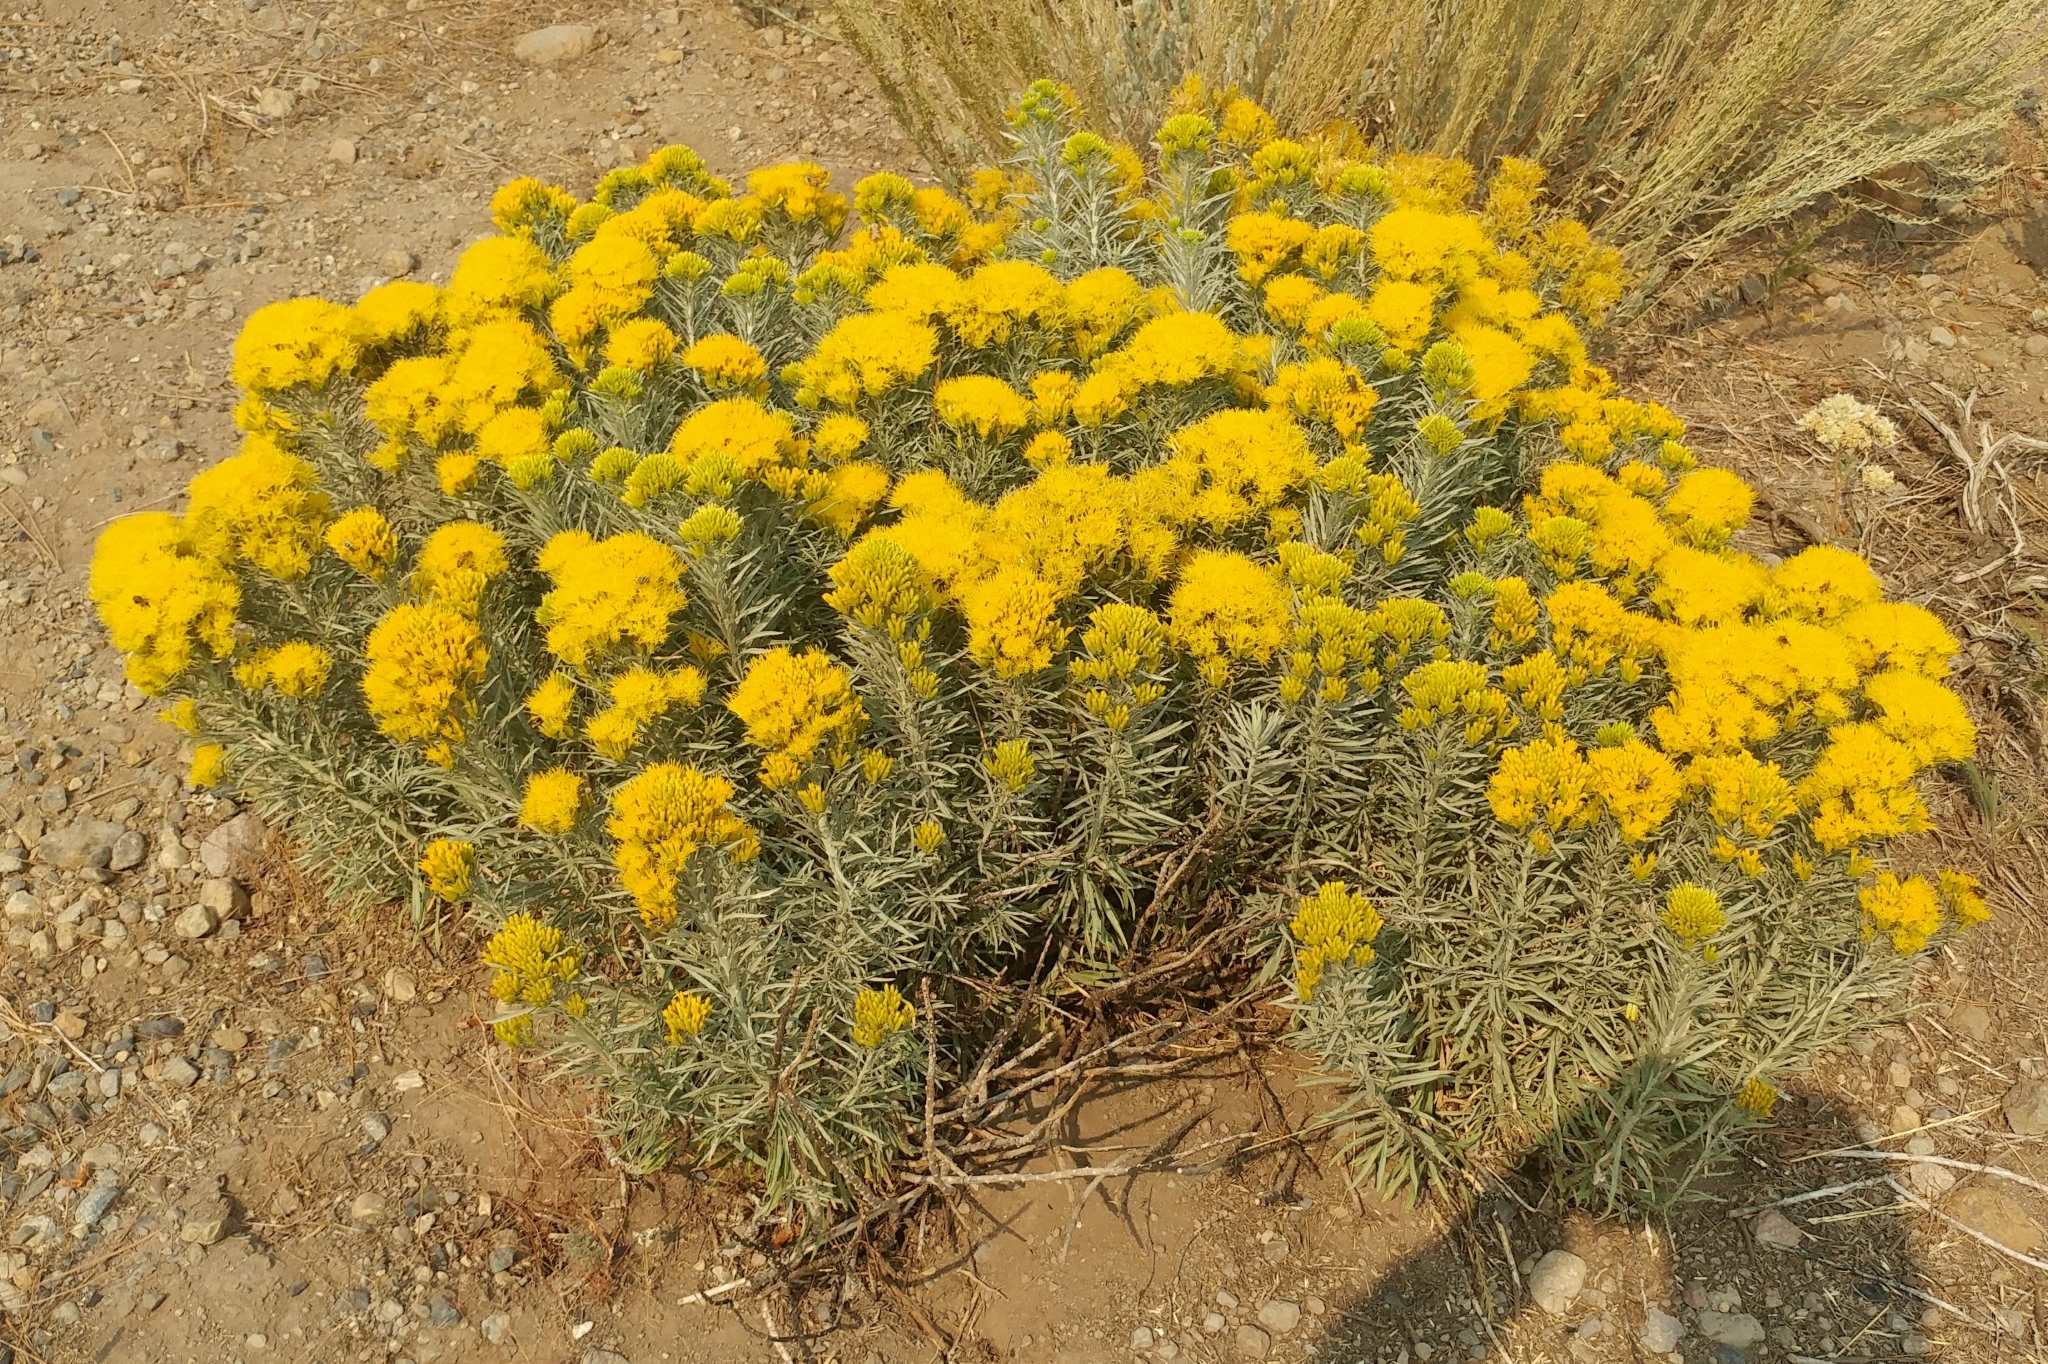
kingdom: Plantae
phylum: Tracheophyta
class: Magnoliopsida
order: Asterales
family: Asteraceae
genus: Ericameria
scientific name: Ericameria nauseosa
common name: Rubber rabbitbrush
